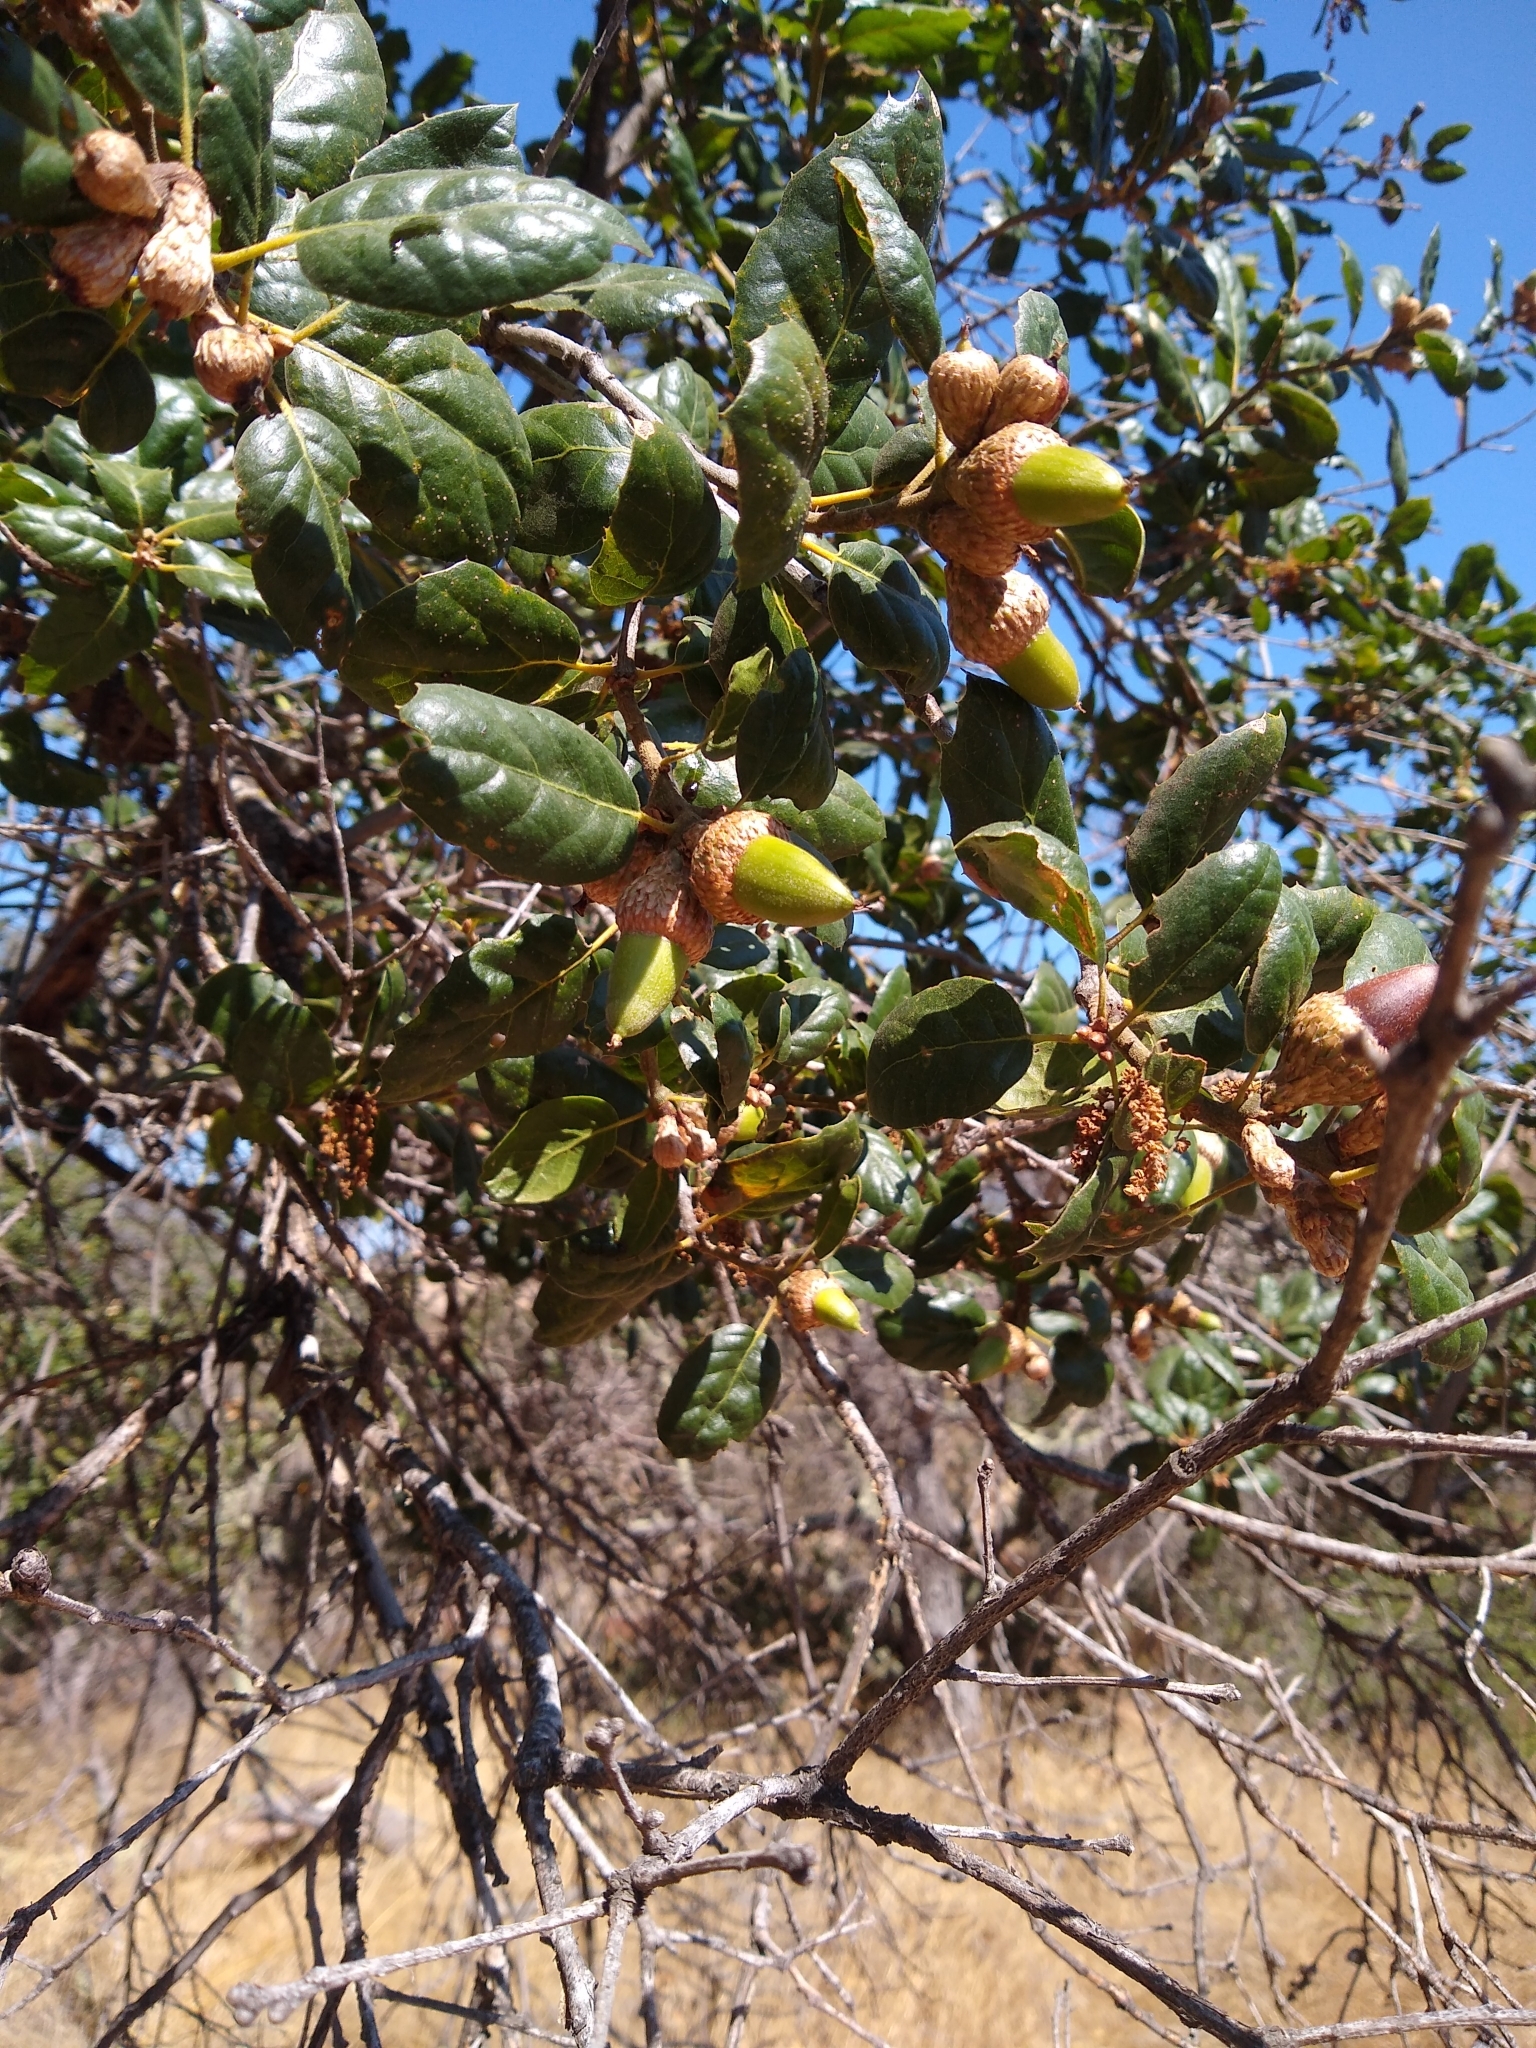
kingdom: Plantae
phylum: Tracheophyta
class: Magnoliopsida
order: Fagales
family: Fagaceae
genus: Quercus
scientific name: Quercus agrifolia
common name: California live oak
